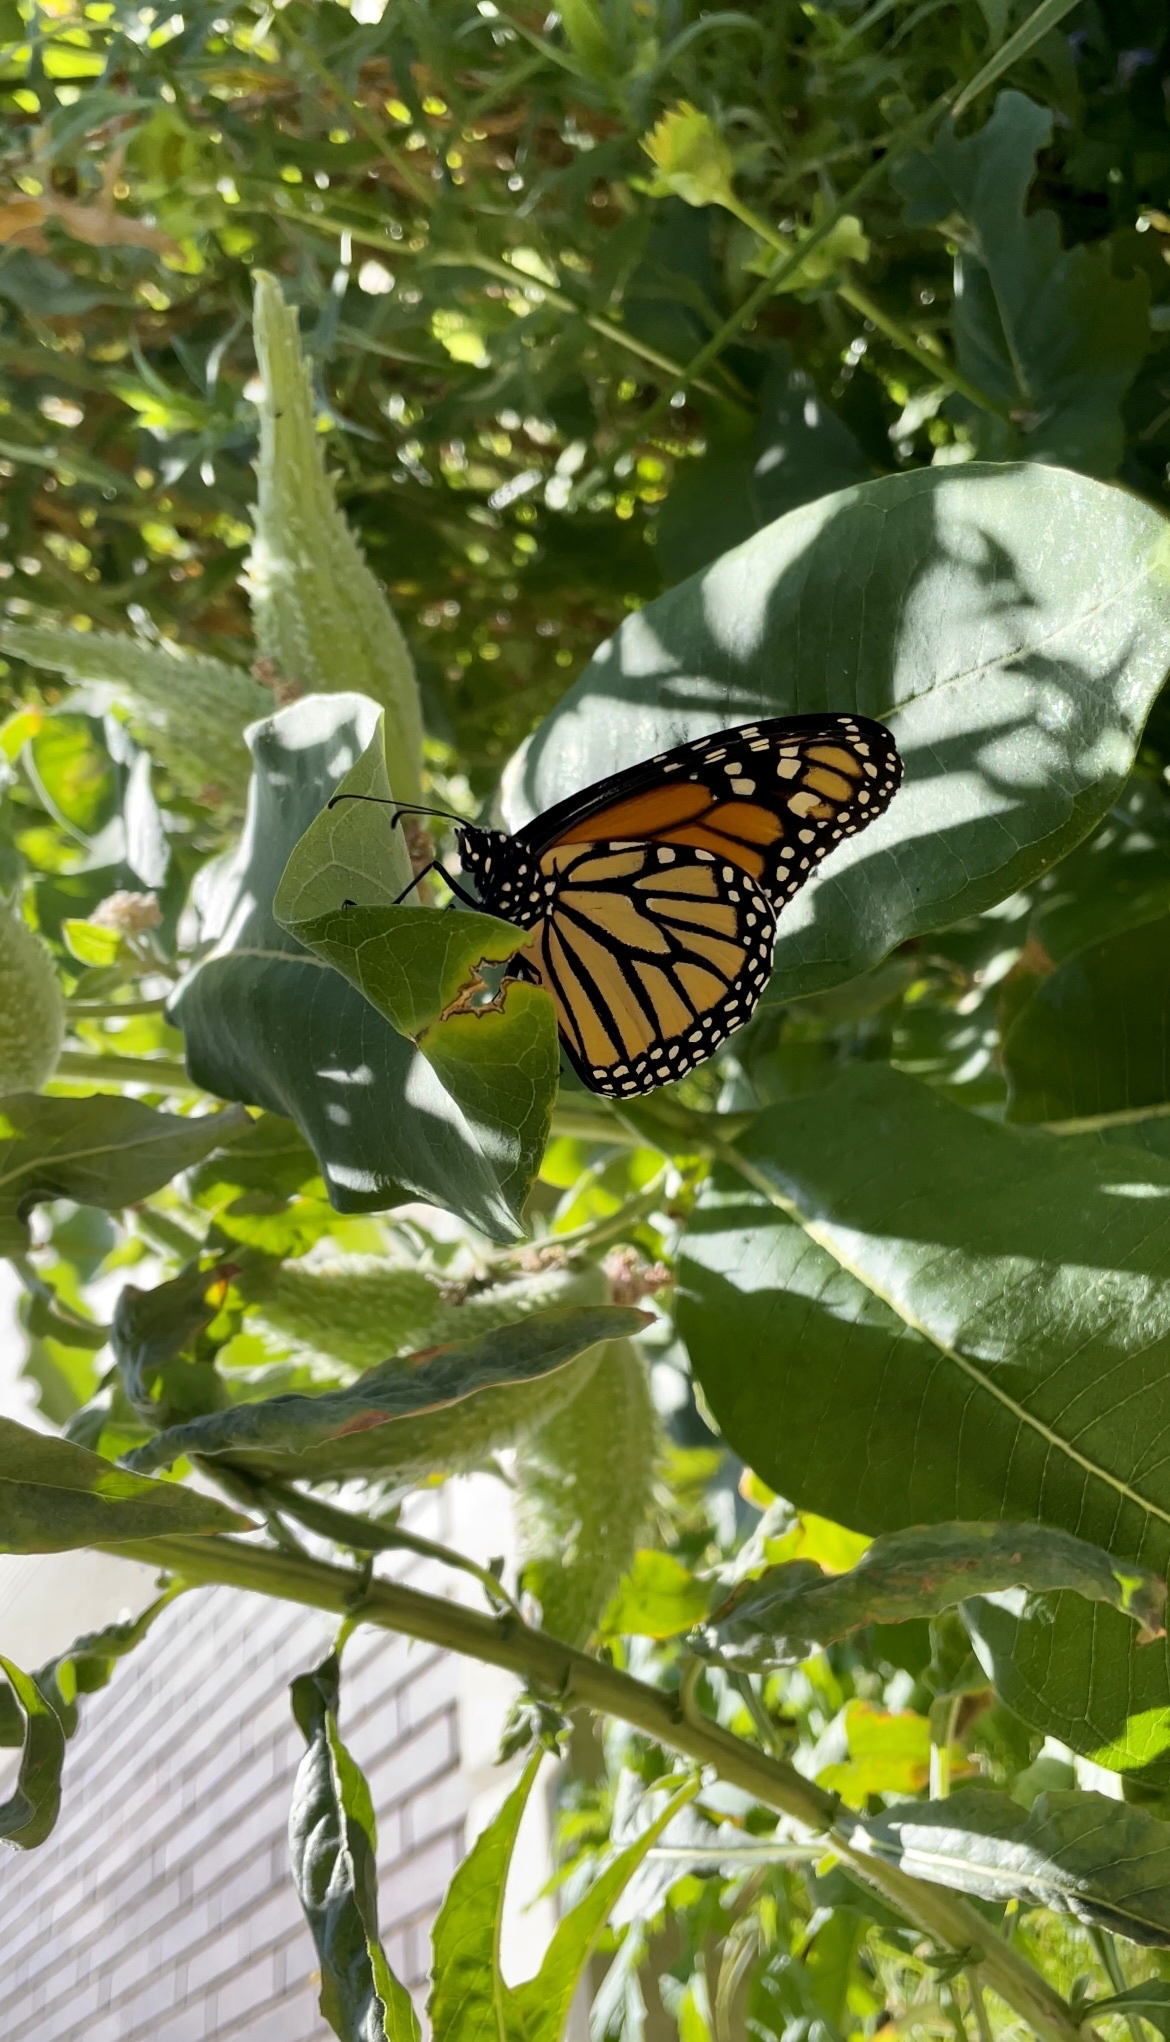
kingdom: Animalia
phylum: Arthropoda
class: Insecta
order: Lepidoptera
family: Nymphalidae
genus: Danaus
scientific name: Danaus plexippus
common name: Monarch
